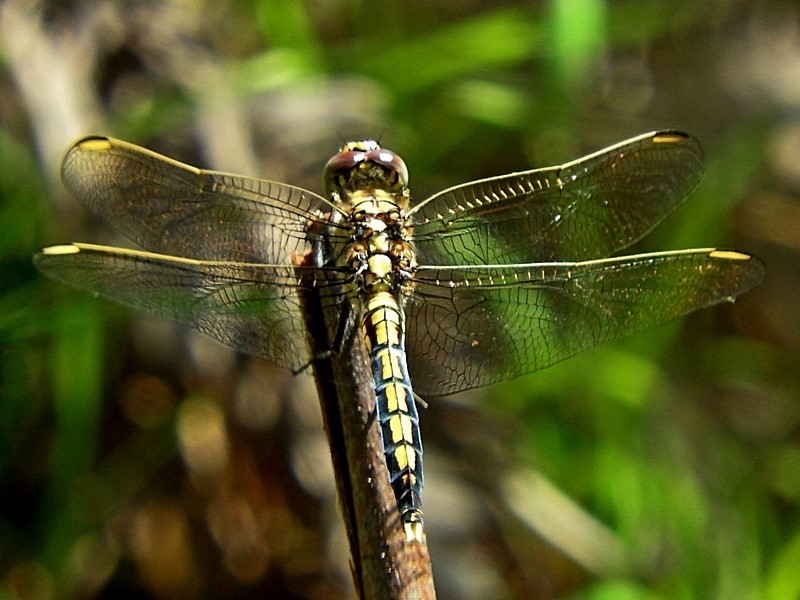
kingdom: Animalia
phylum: Arthropoda
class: Insecta
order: Odonata
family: Libellulidae
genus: Orthetrum
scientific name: Orthetrum caledonicum
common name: Blue skimmer
